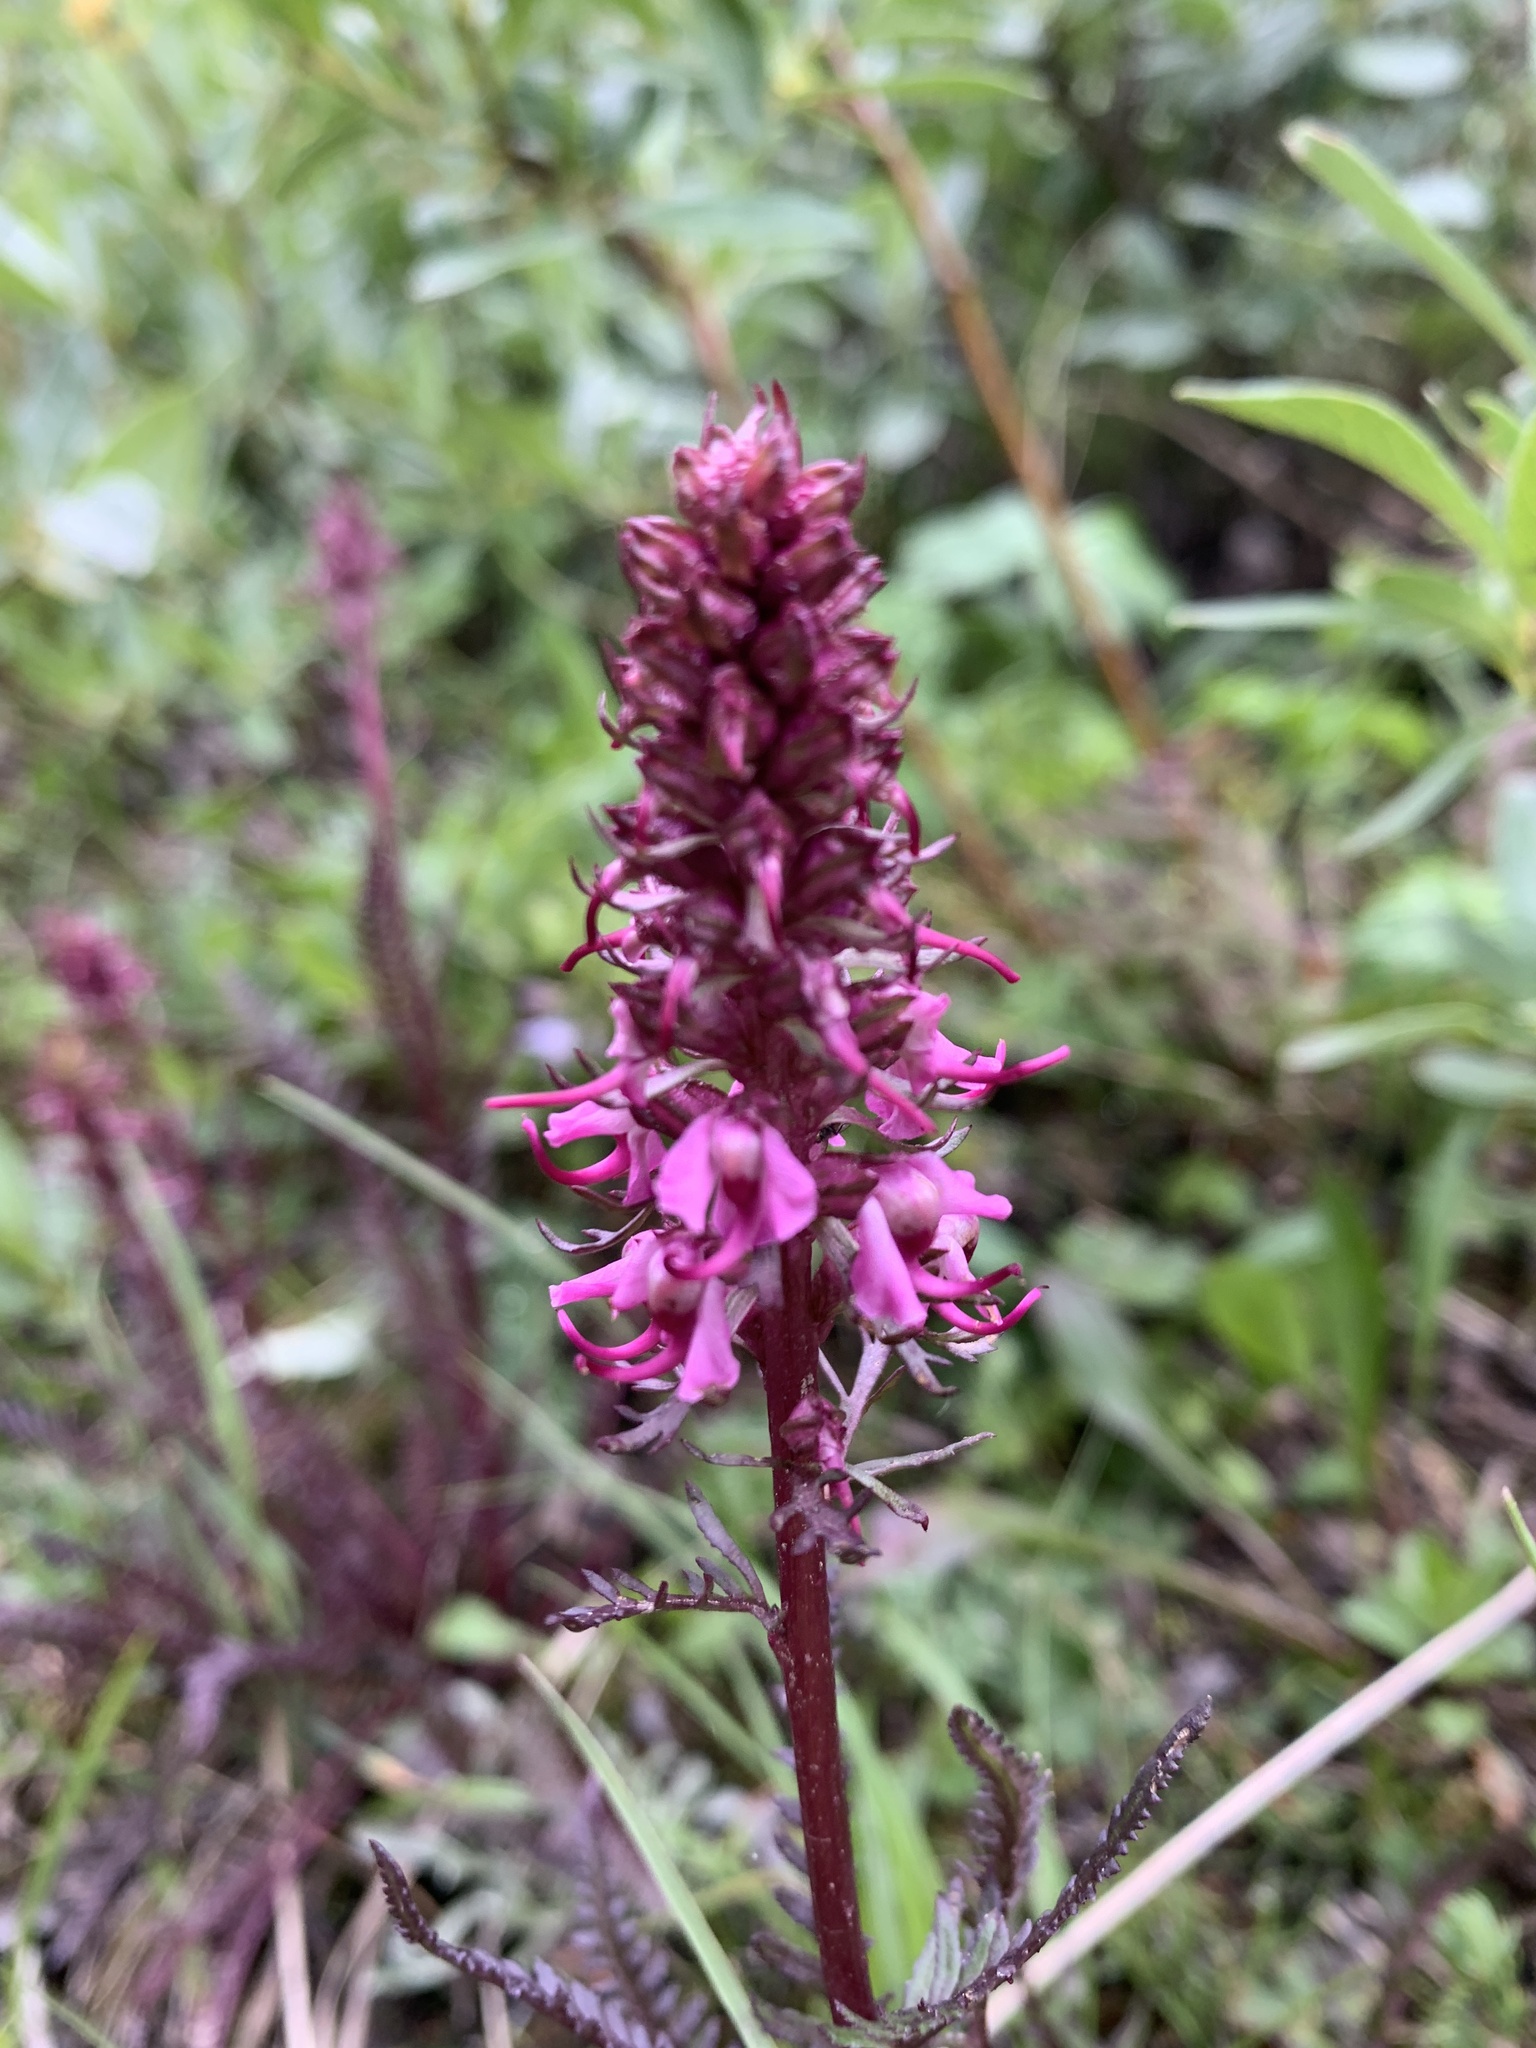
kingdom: Plantae
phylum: Tracheophyta
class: Magnoliopsida
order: Lamiales
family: Orobanchaceae
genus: Pedicularis
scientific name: Pedicularis groenlandica
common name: Elephant's-head
